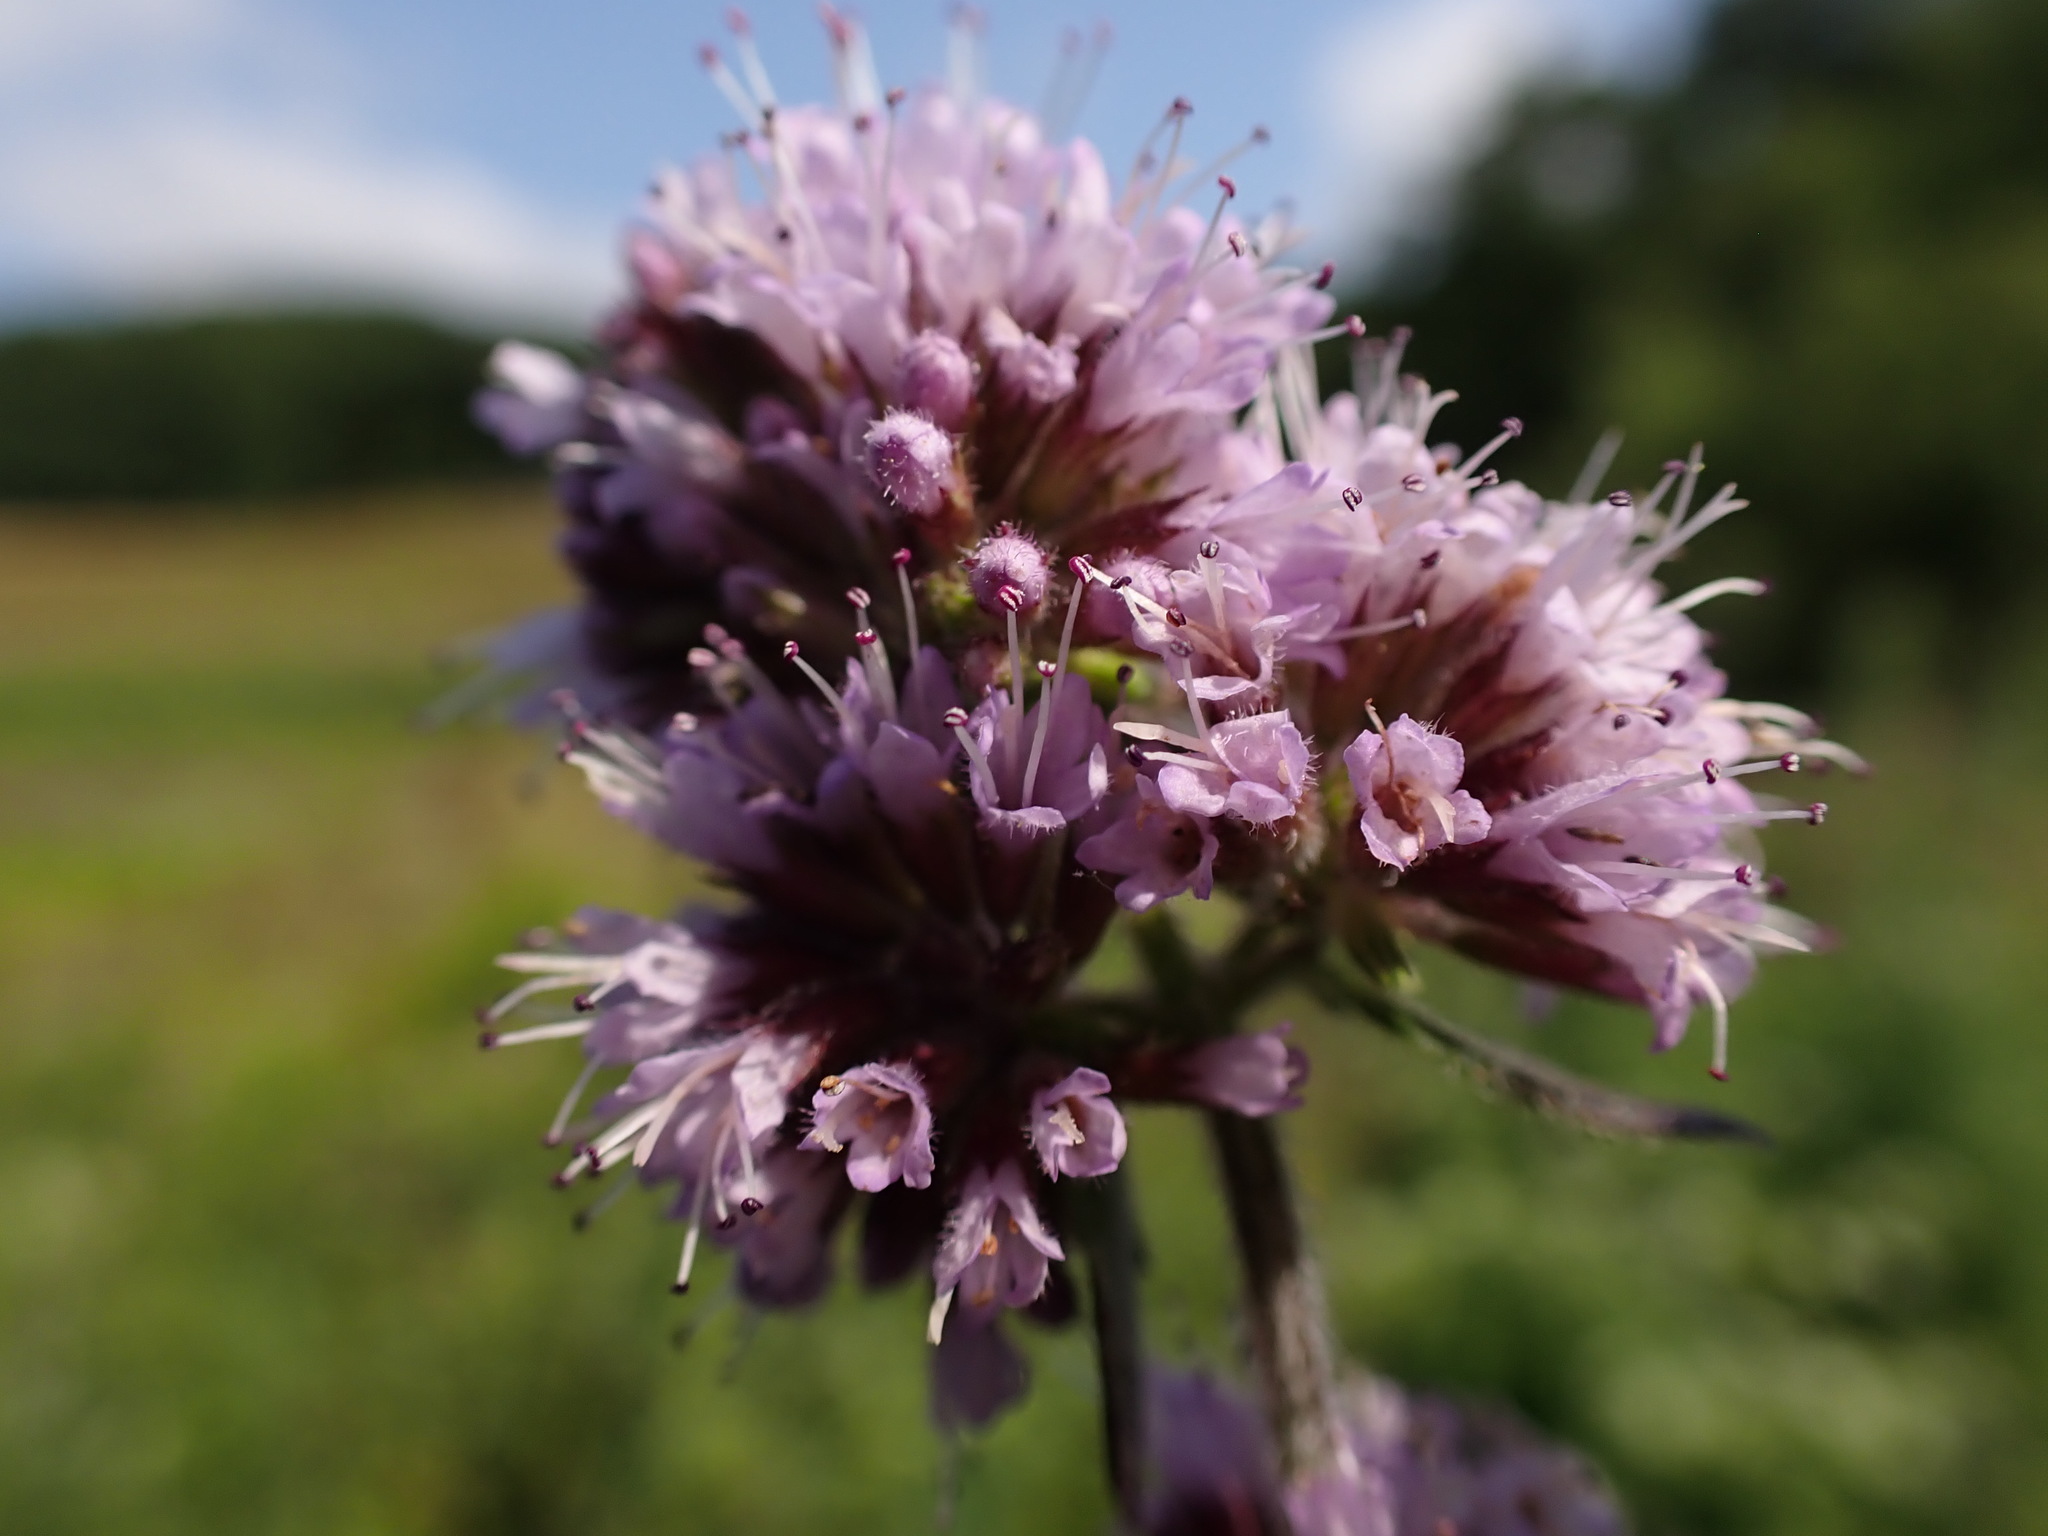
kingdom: Plantae
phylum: Tracheophyta
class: Magnoliopsida
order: Lamiales
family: Lamiaceae
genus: Mentha
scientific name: Mentha aquatica
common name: Water mint
